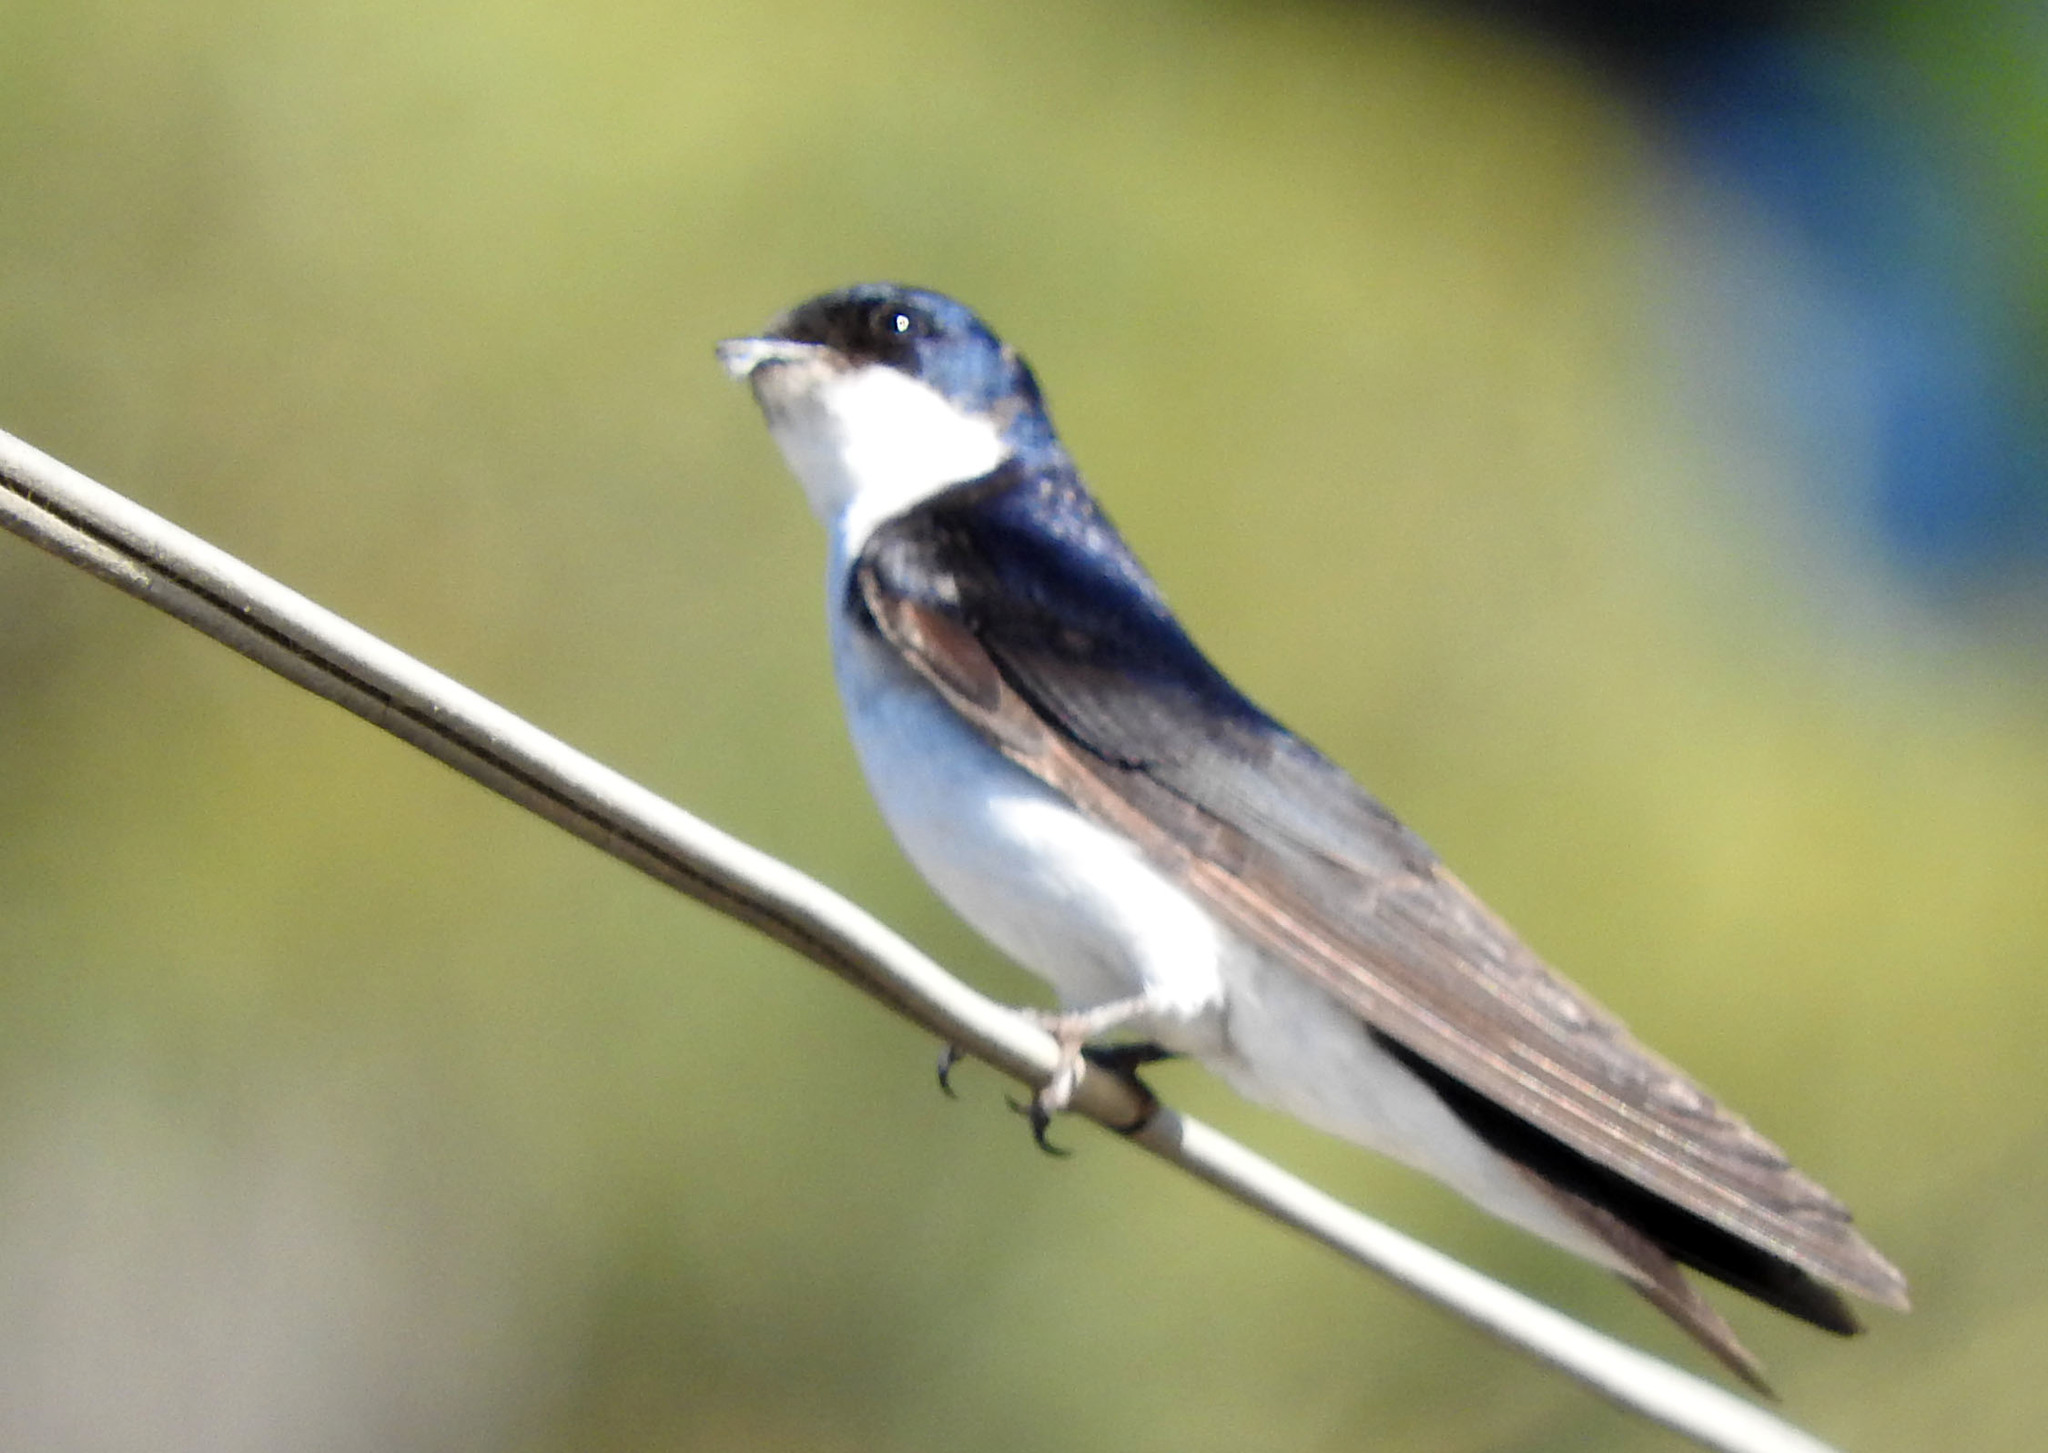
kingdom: Animalia
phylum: Chordata
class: Aves
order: Passeriformes
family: Hirundinidae
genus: Tachycineta
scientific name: Tachycineta leucopyga
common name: Chilean swallow
